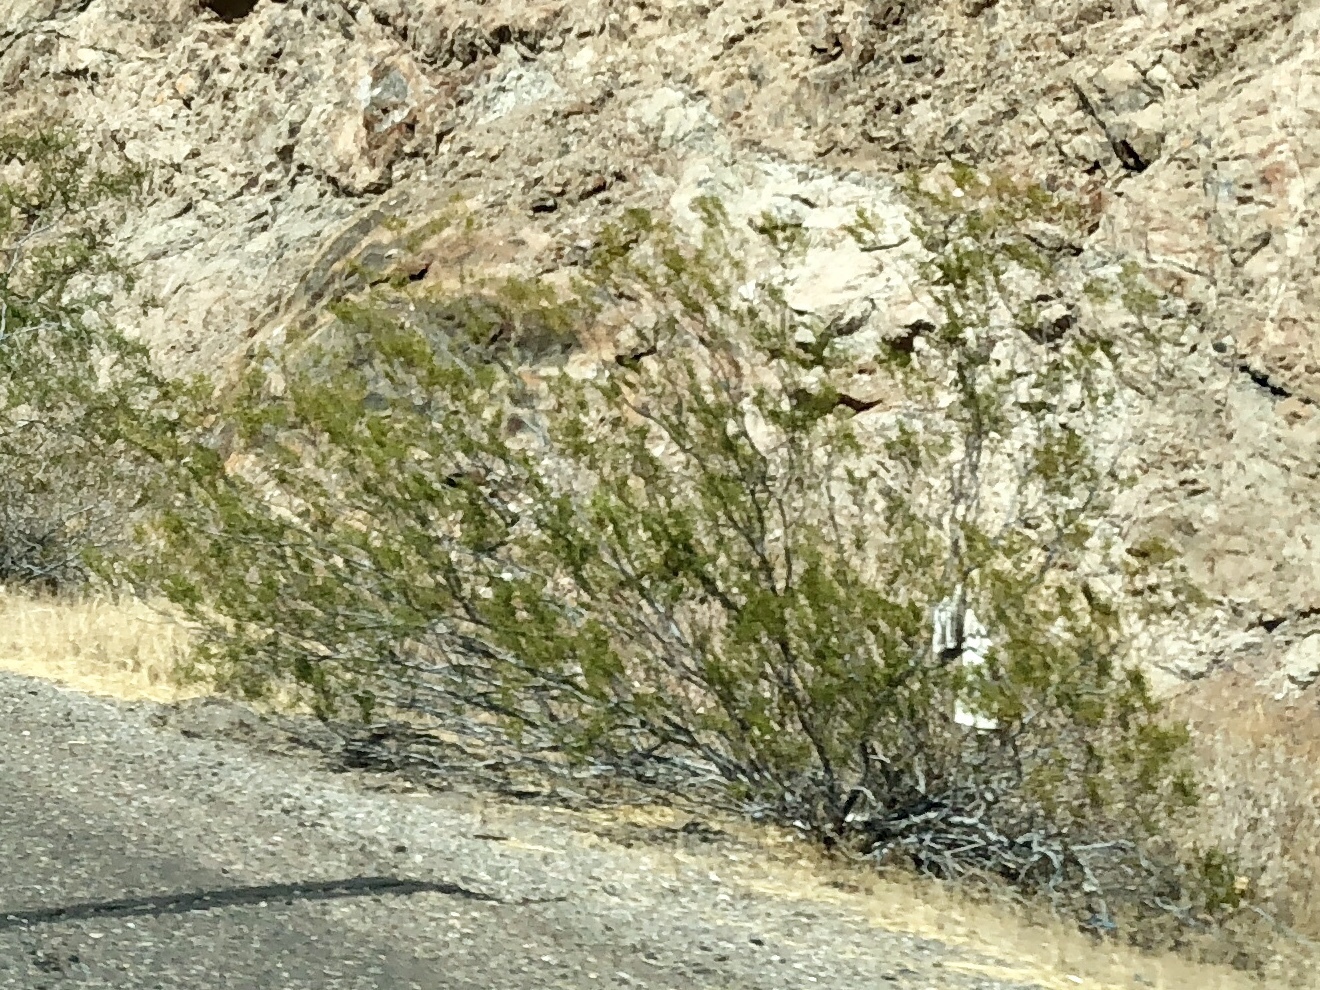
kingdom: Plantae
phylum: Tracheophyta
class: Magnoliopsida
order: Zygophyllales
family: Zygophyllaceae
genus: Larrea
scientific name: Larrea tridentata
